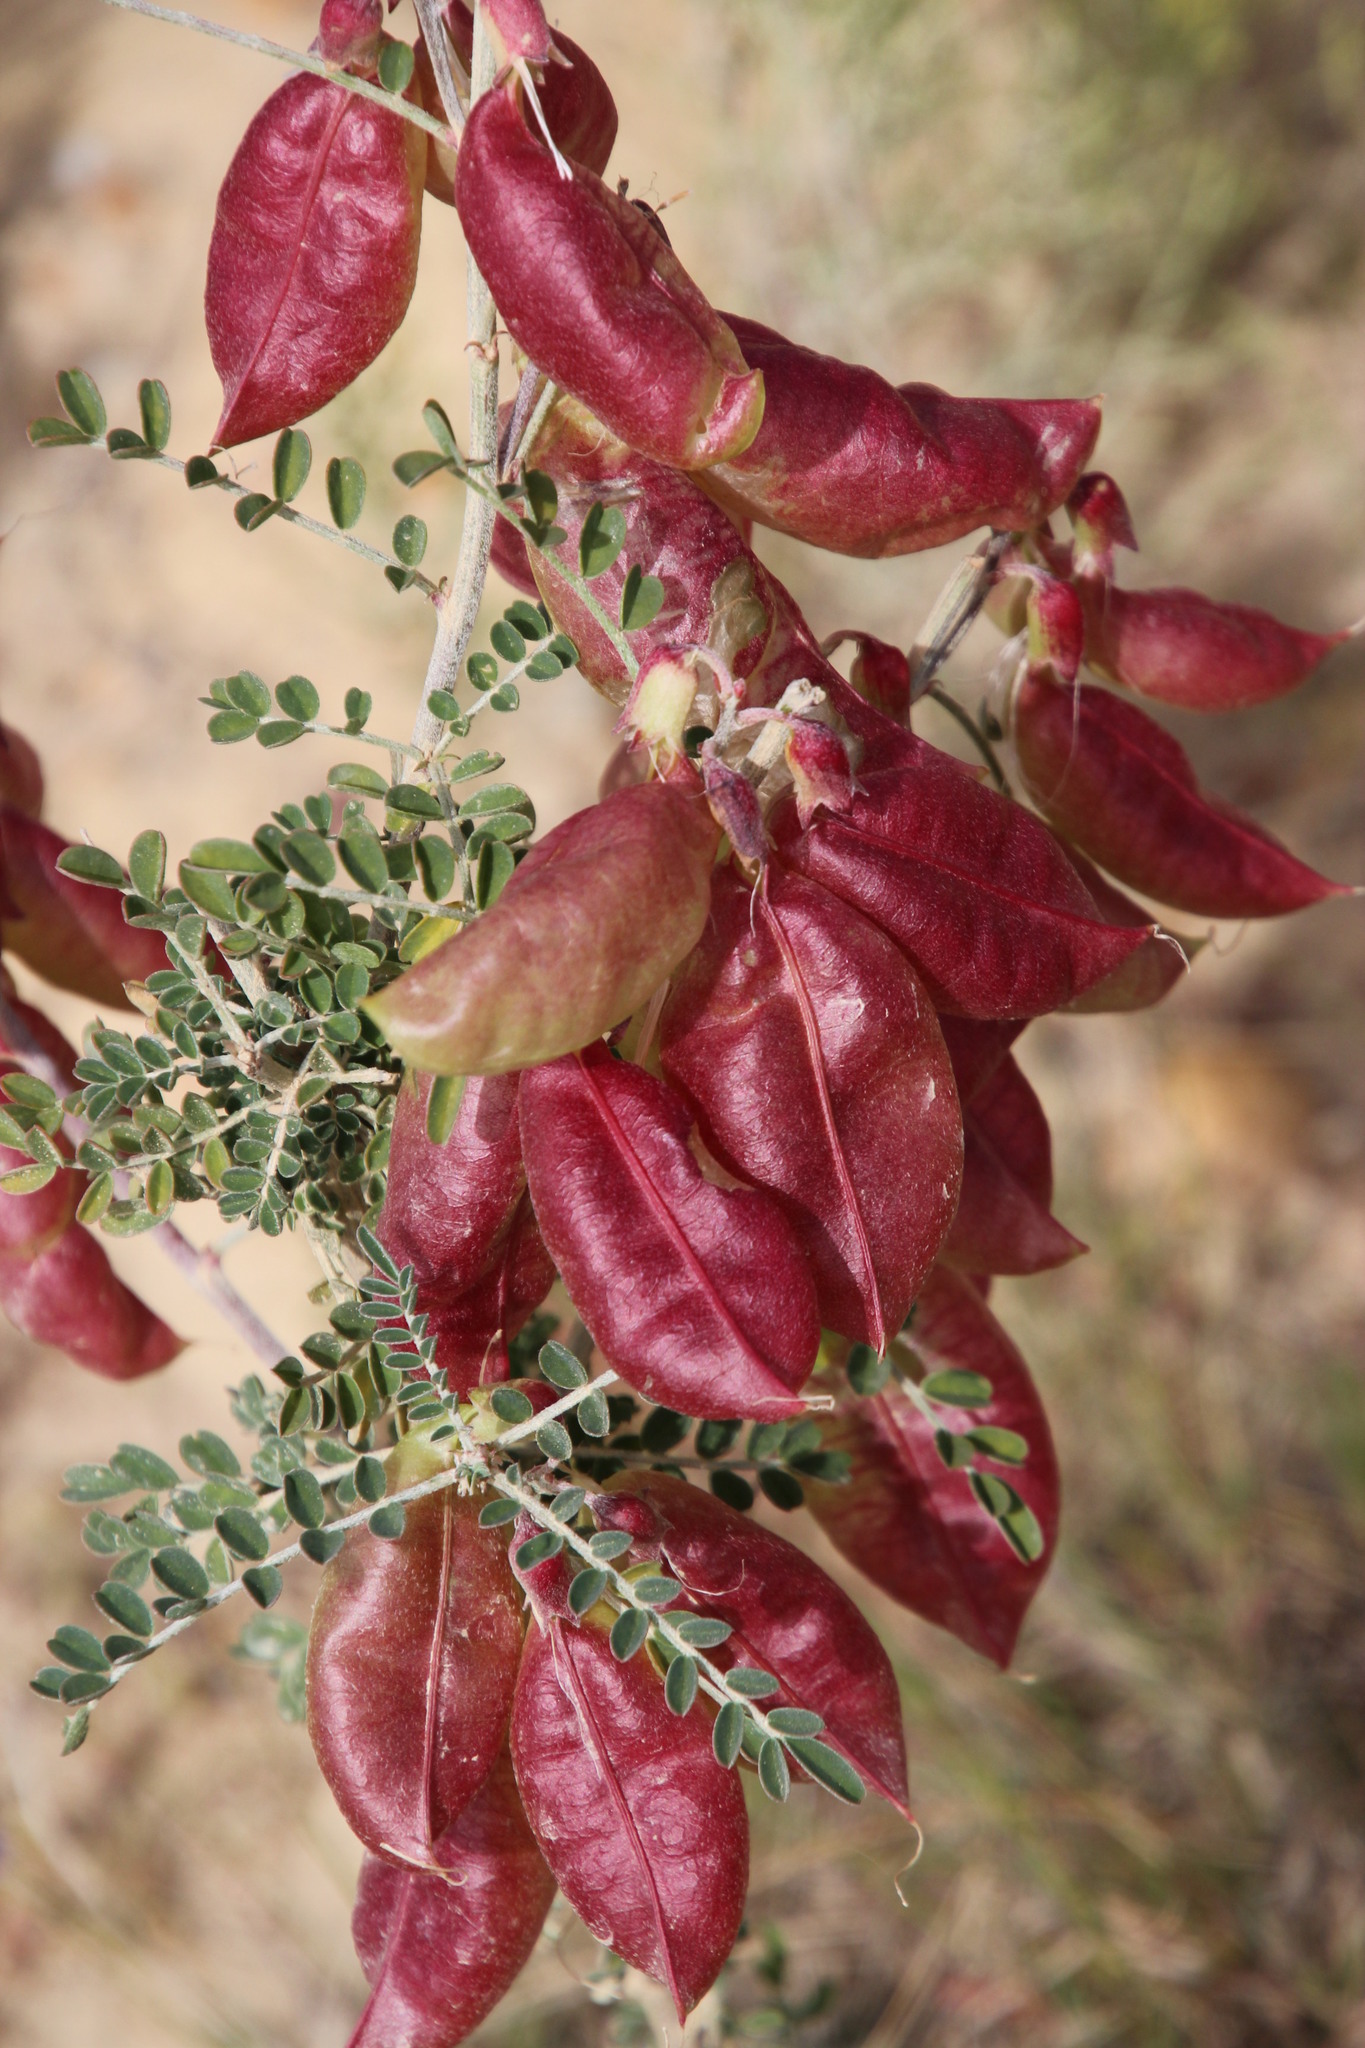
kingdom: Plantae
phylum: Tracheophyta
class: Magnoliopsida
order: Fabales
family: Fabaceae
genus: Lessertia
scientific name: Lessertia frutescens
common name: Balloon-pea
